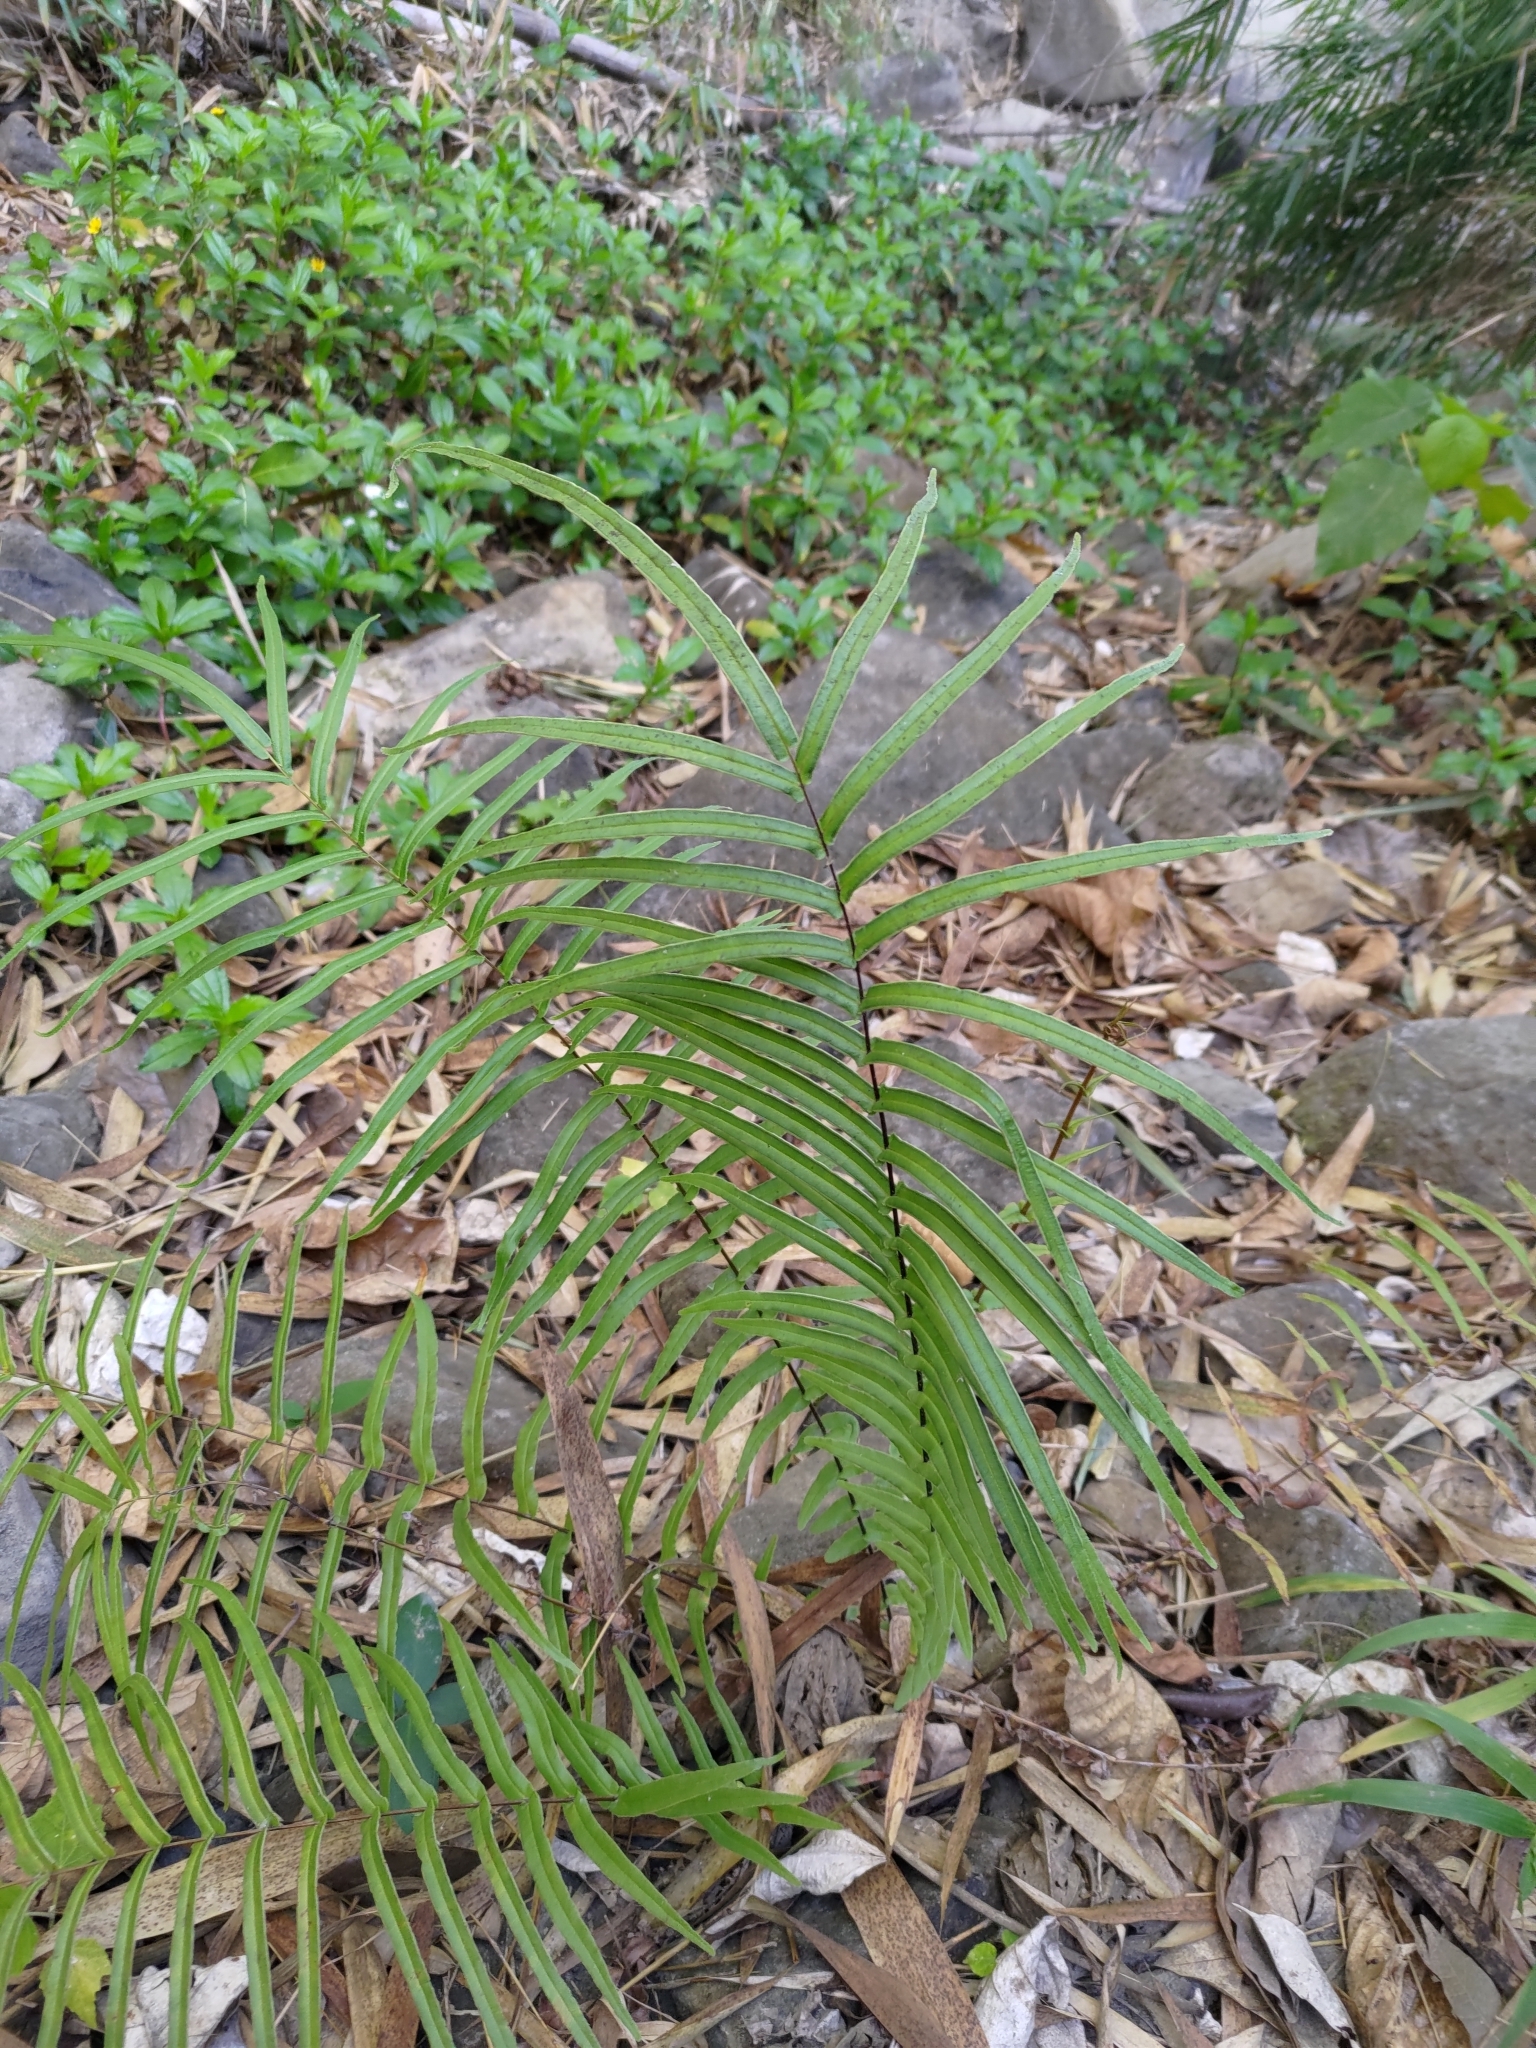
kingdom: Plantae
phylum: Tracheophyta
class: Polypodiopsida
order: Polypodiales
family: Pteridaceae
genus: Pteris
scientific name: Pteris vittata
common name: Ladder brake
